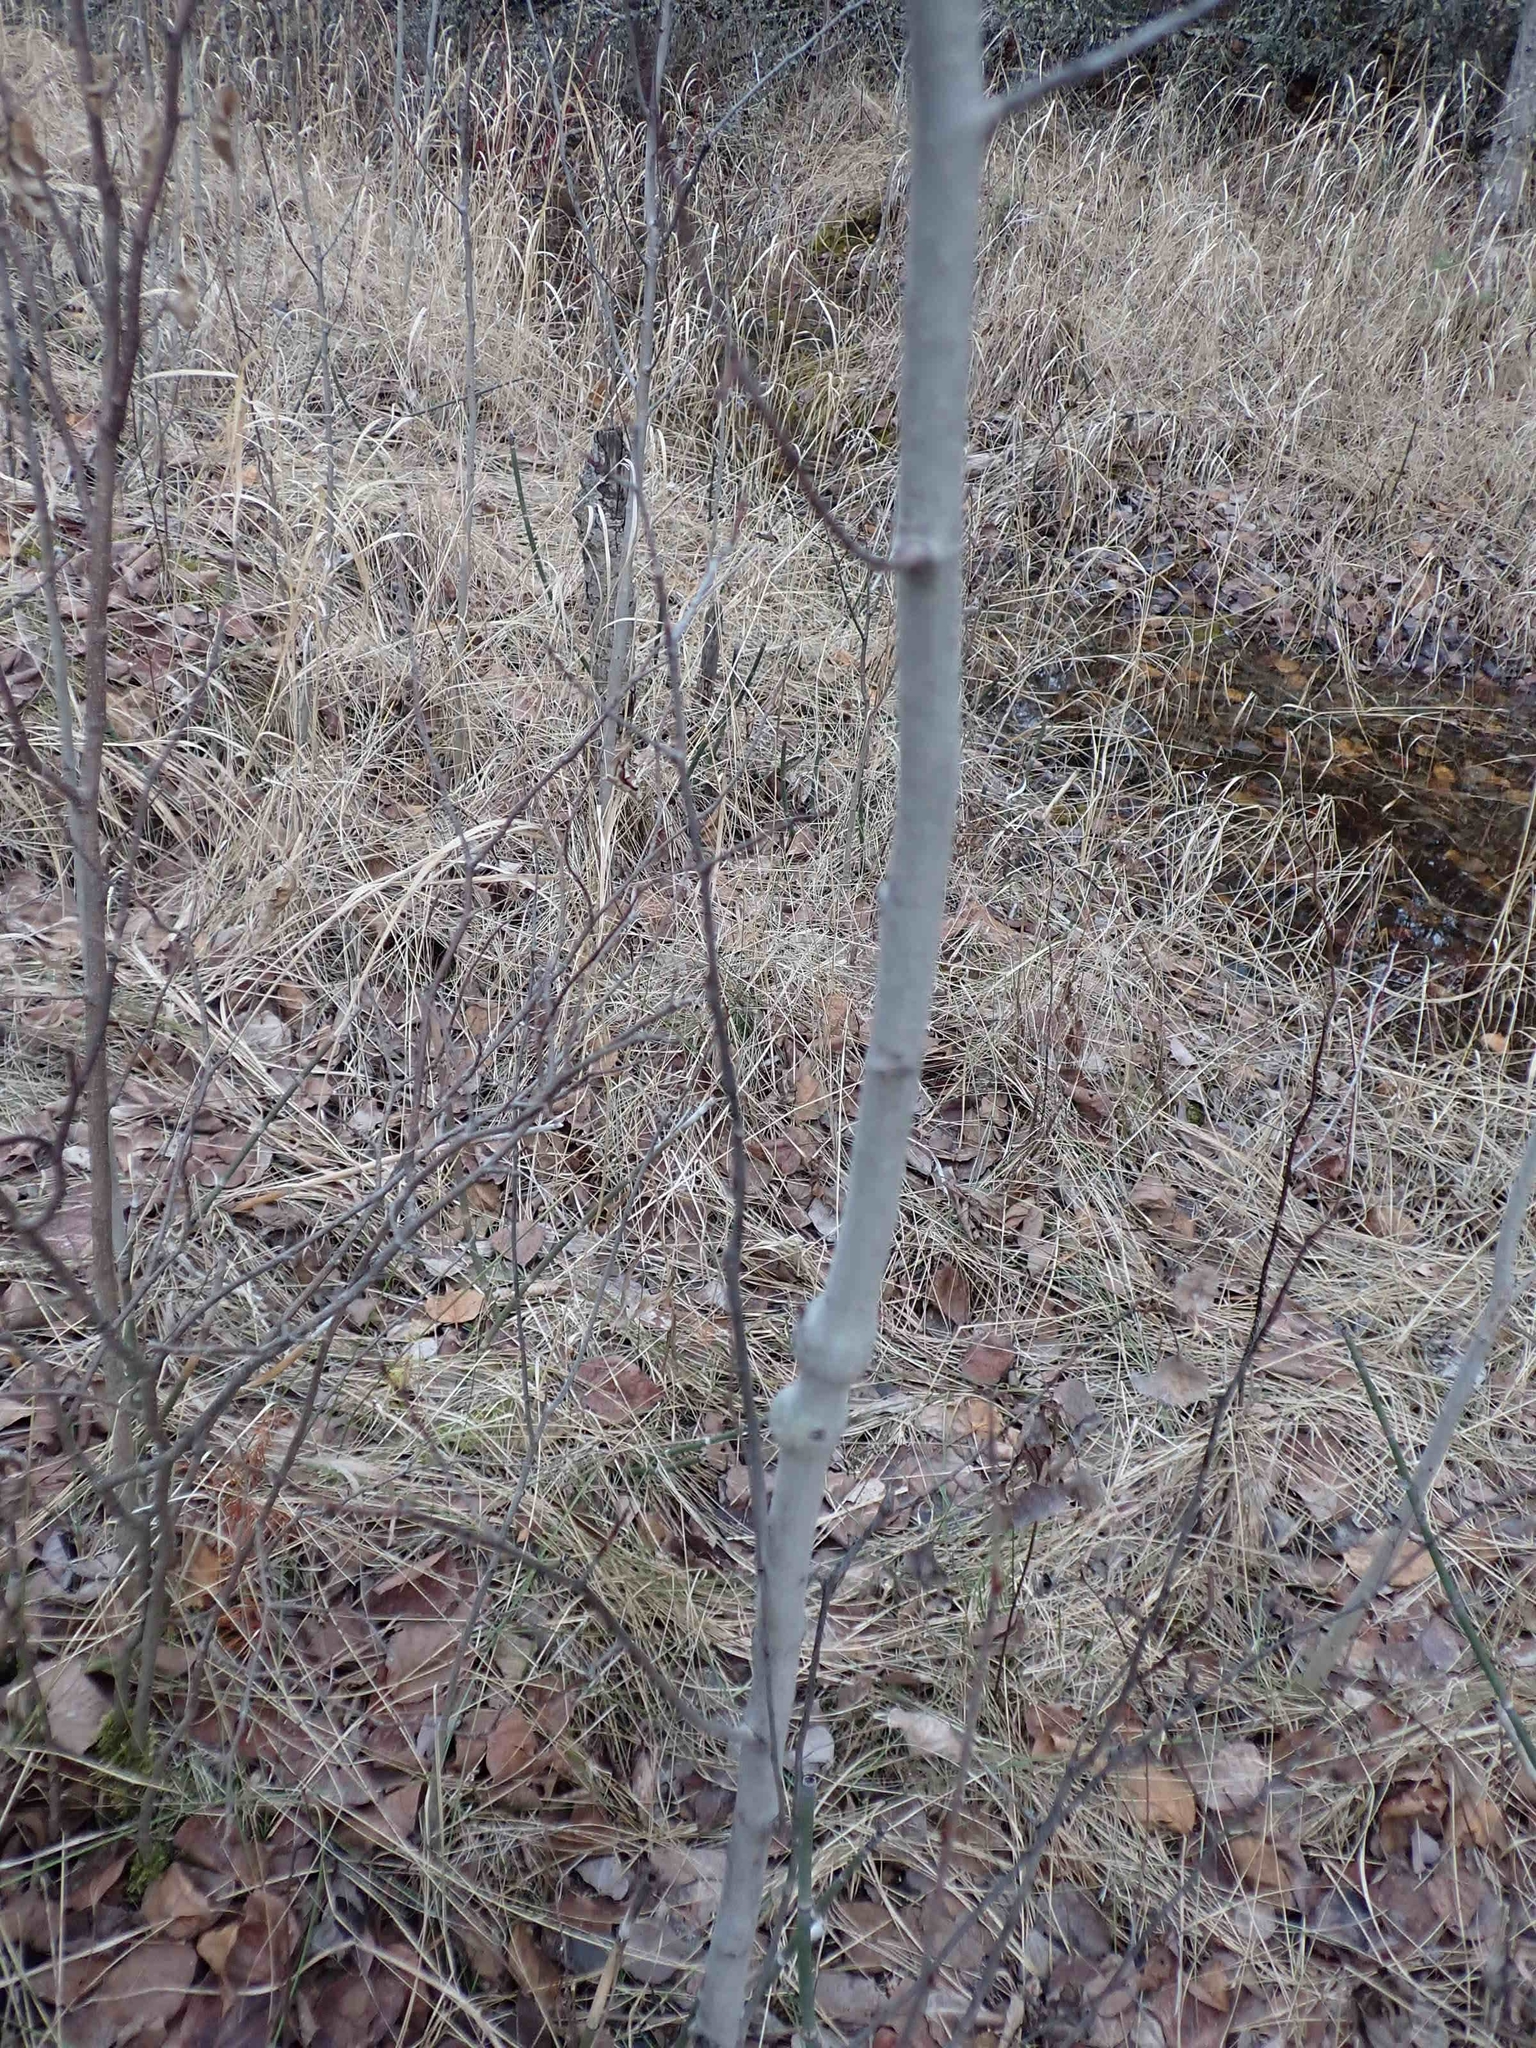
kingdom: Animalia
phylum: Arthropoda
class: Insecta
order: Diptera
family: Agromyzidae
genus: Euhexomyza
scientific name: Euhexomyza schineri
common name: Poplar twiggall fly
